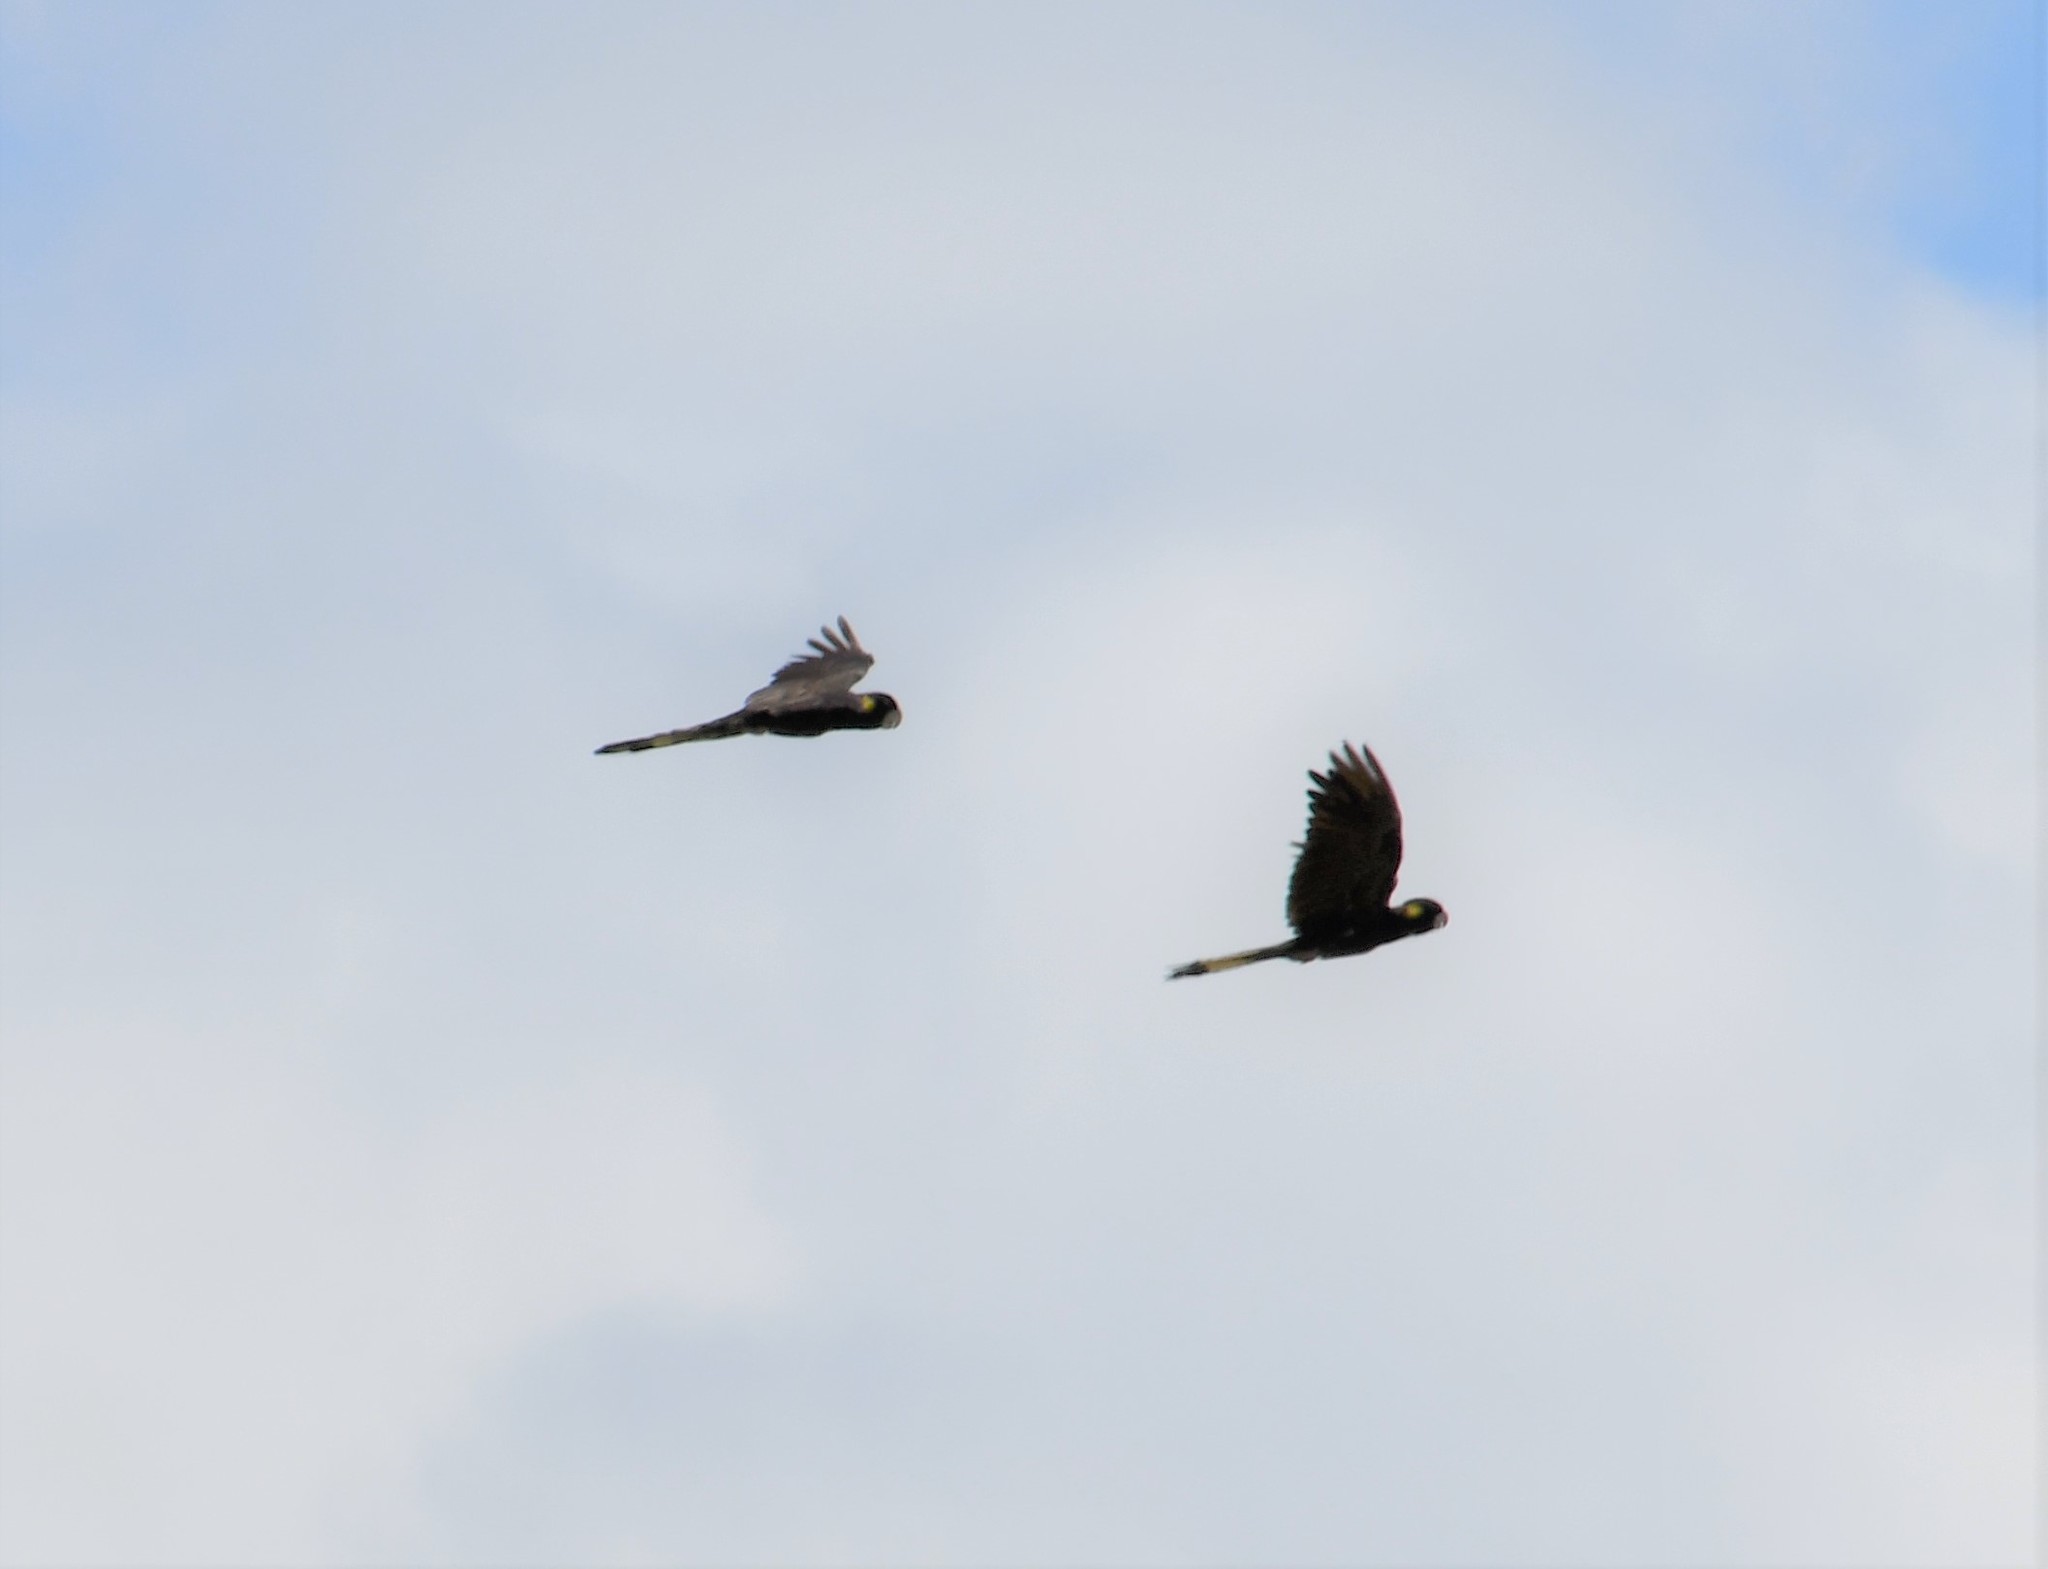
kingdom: Animalia
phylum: Chordata
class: Aves
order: Psittaciformes
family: Cacatuidae
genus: Zanda
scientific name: Zanda funerea
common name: Yellow-tailed black-cockatoo
